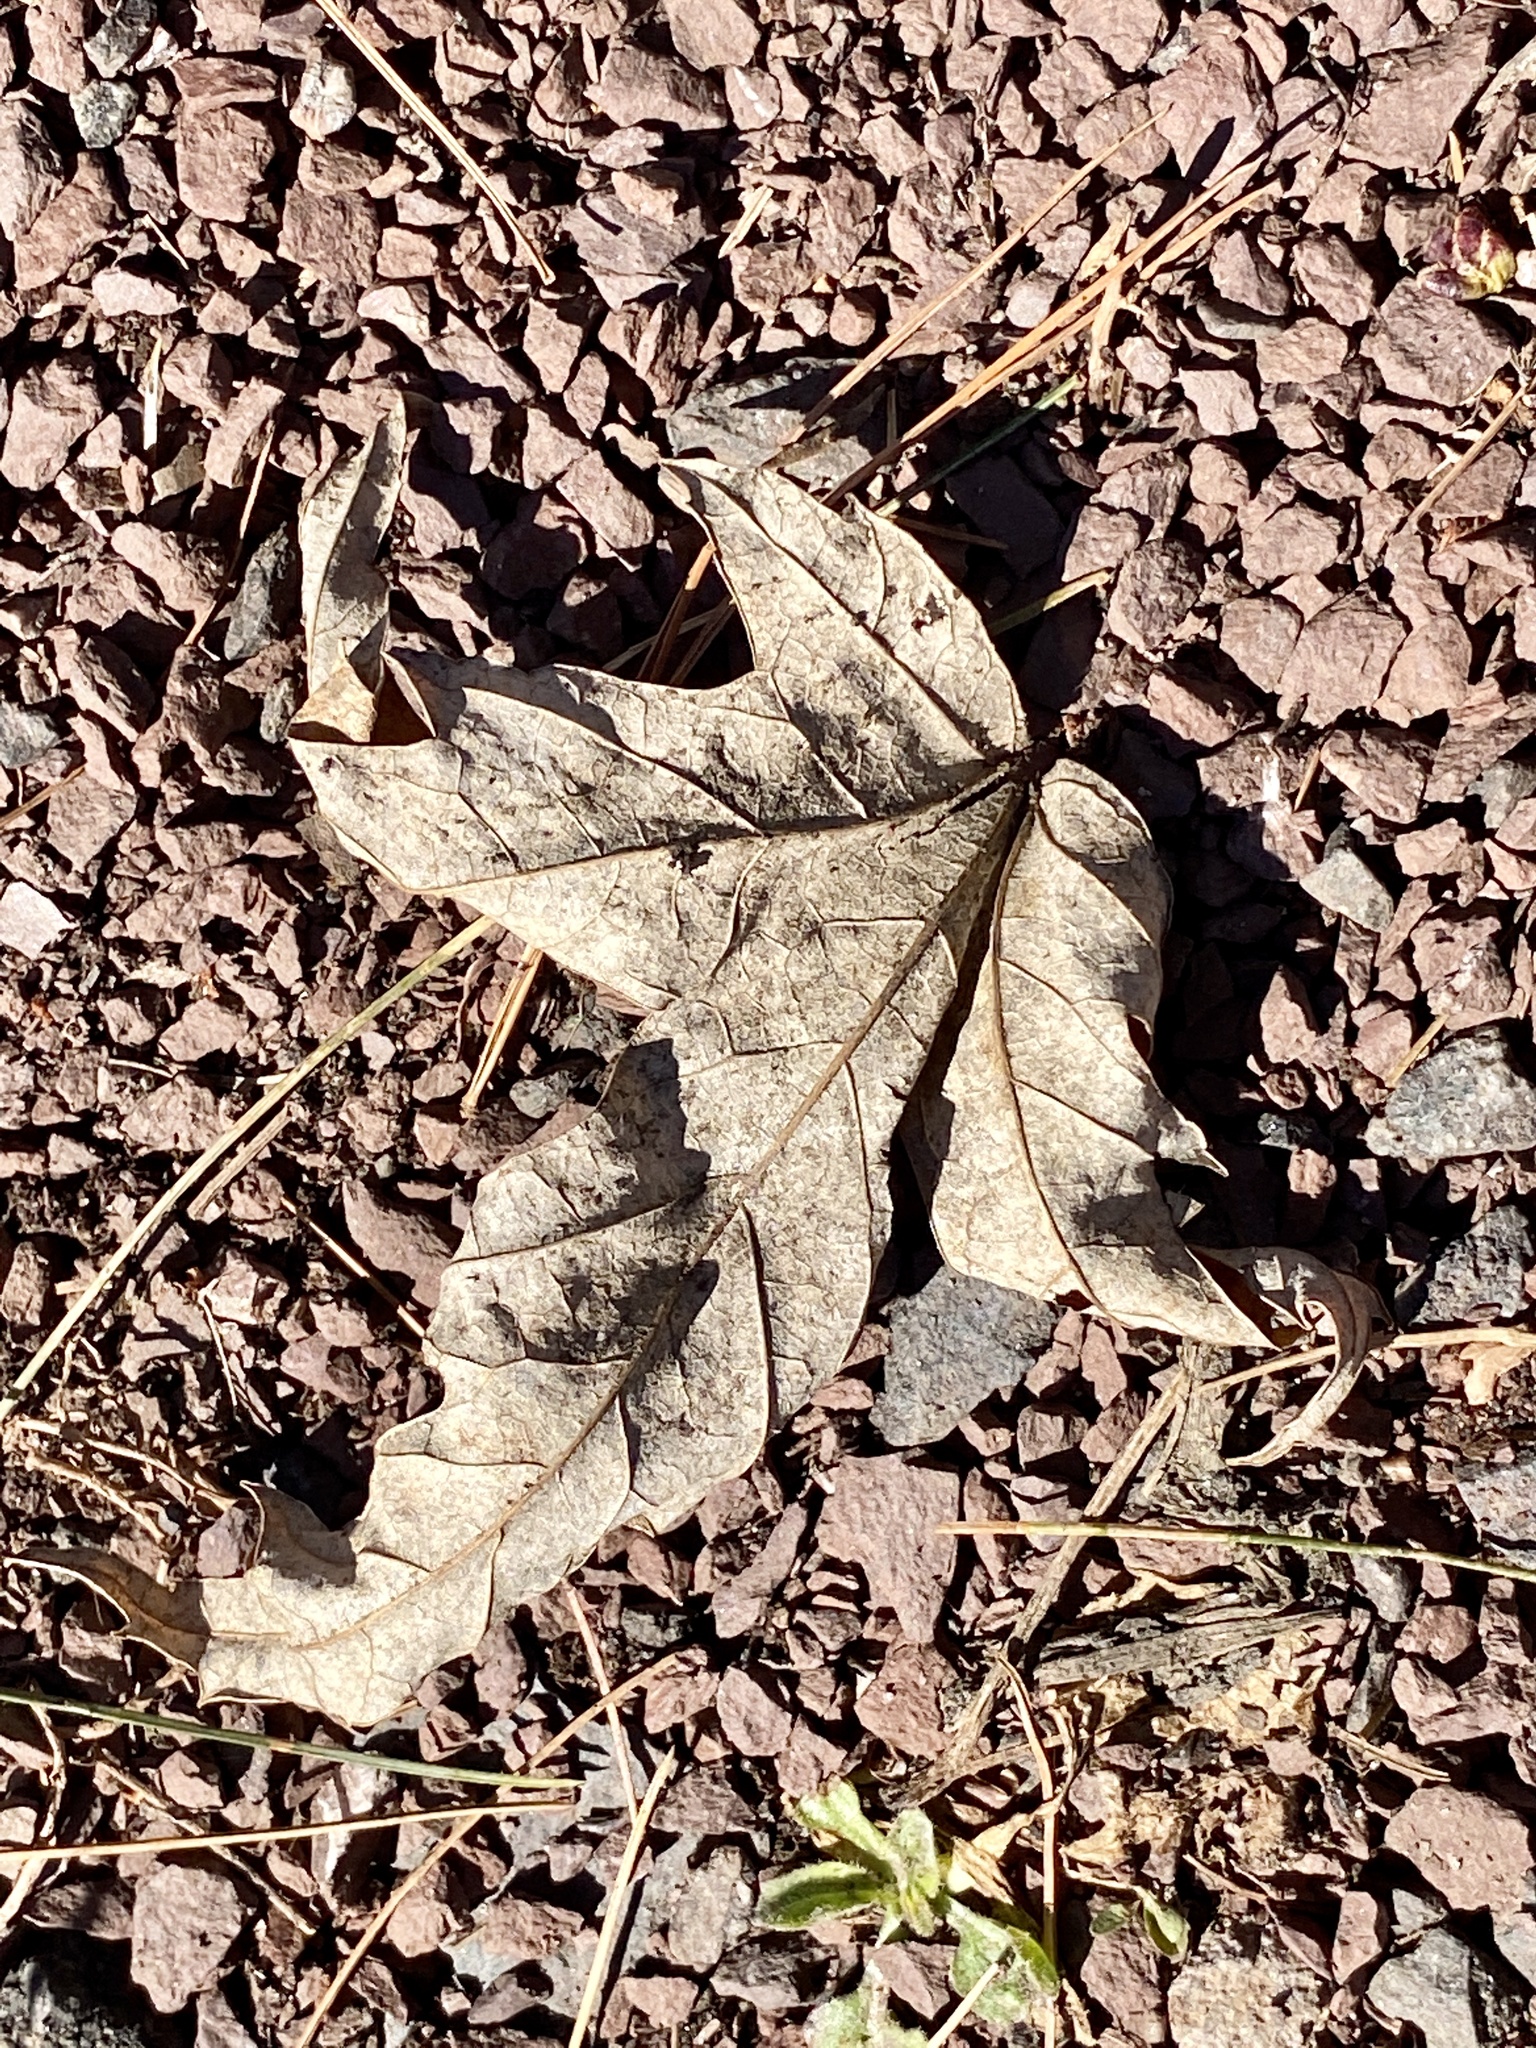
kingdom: Plantae
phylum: Tracheophyta
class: Magnoliopsida
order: Sapindales
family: Sapindaceae
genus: Acer
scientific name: Acer saccharinum
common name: Silver maple
